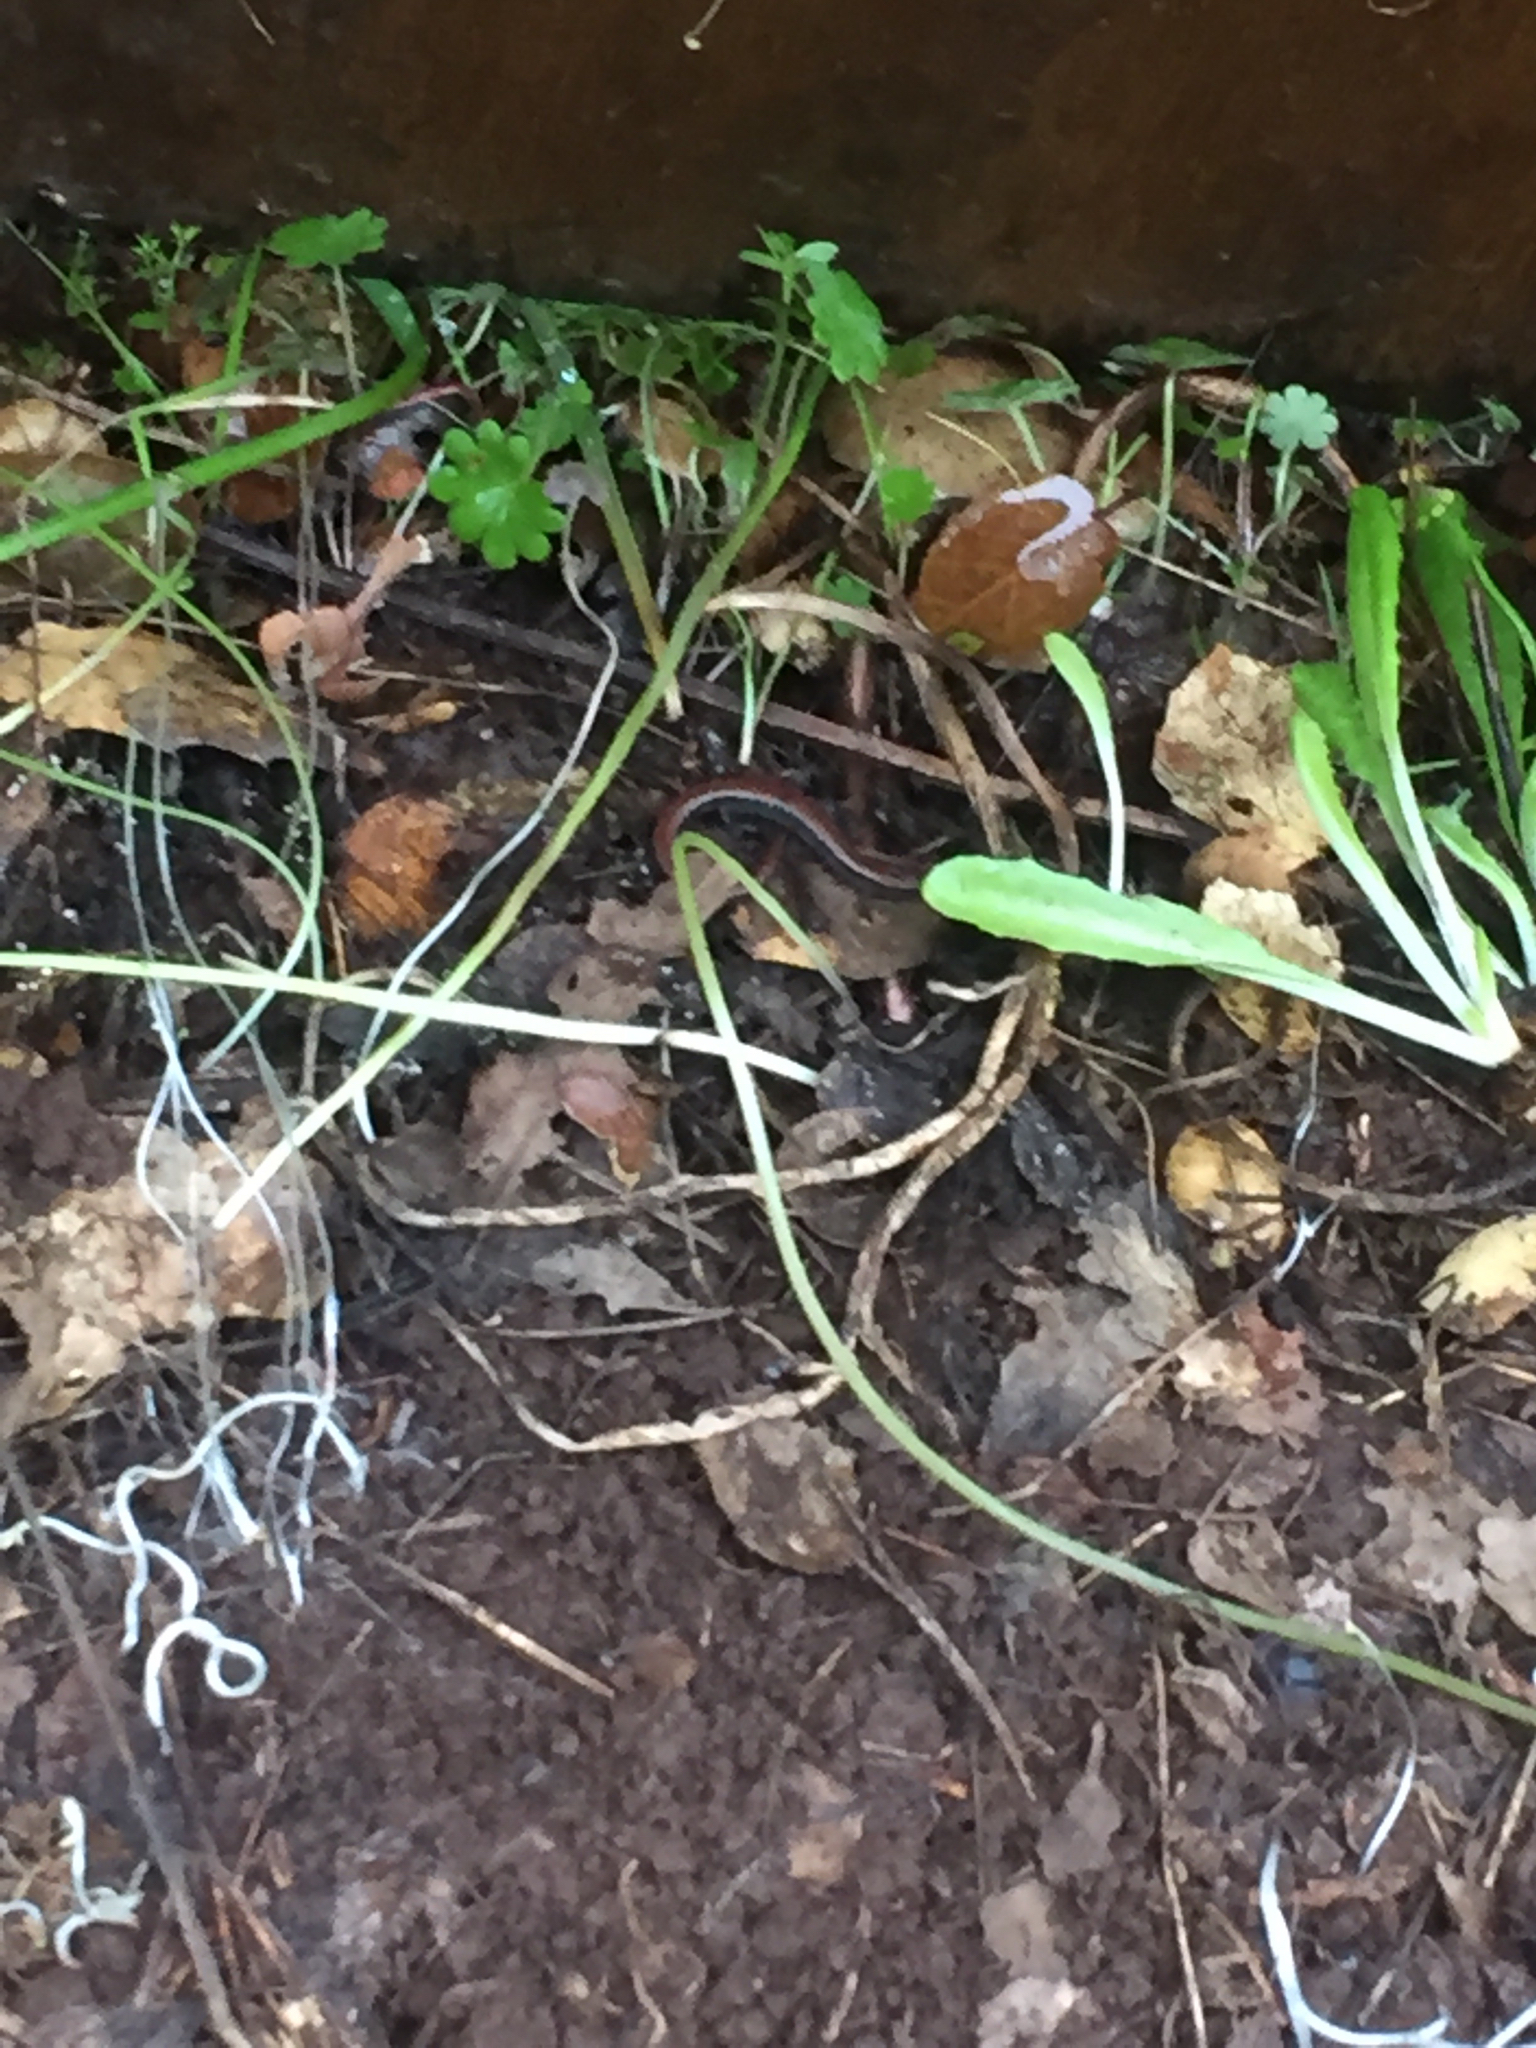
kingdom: Animalia
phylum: Chordata
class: Amphibia
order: Caudata
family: Plethodontidae
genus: Batrachoseps
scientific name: Batrachoseps attenuatus
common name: California slender salamander
